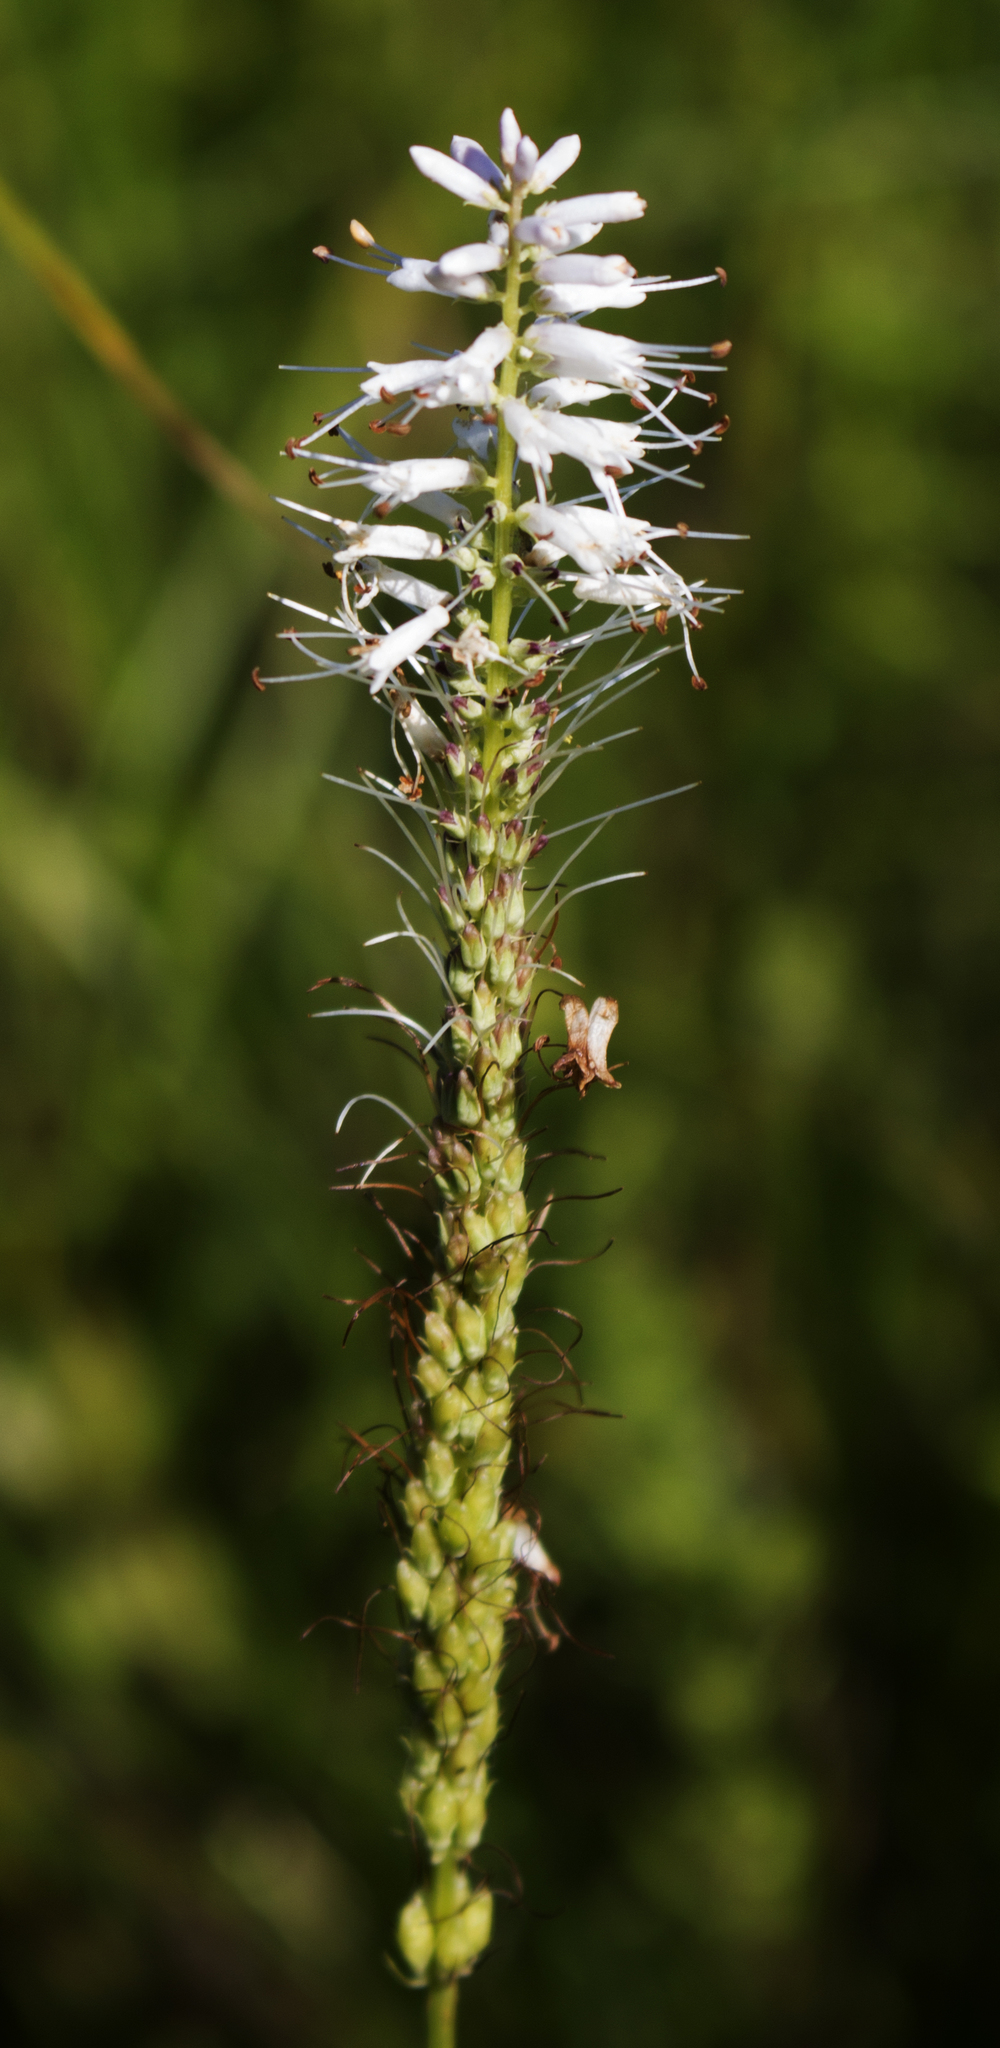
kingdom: Plantae
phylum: Tracheophyta
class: Magnoliopsida
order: Lamiales
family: Plantaginaceae
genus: Veronicastrum
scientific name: Veronicastrum virginicum
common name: Blackroot
